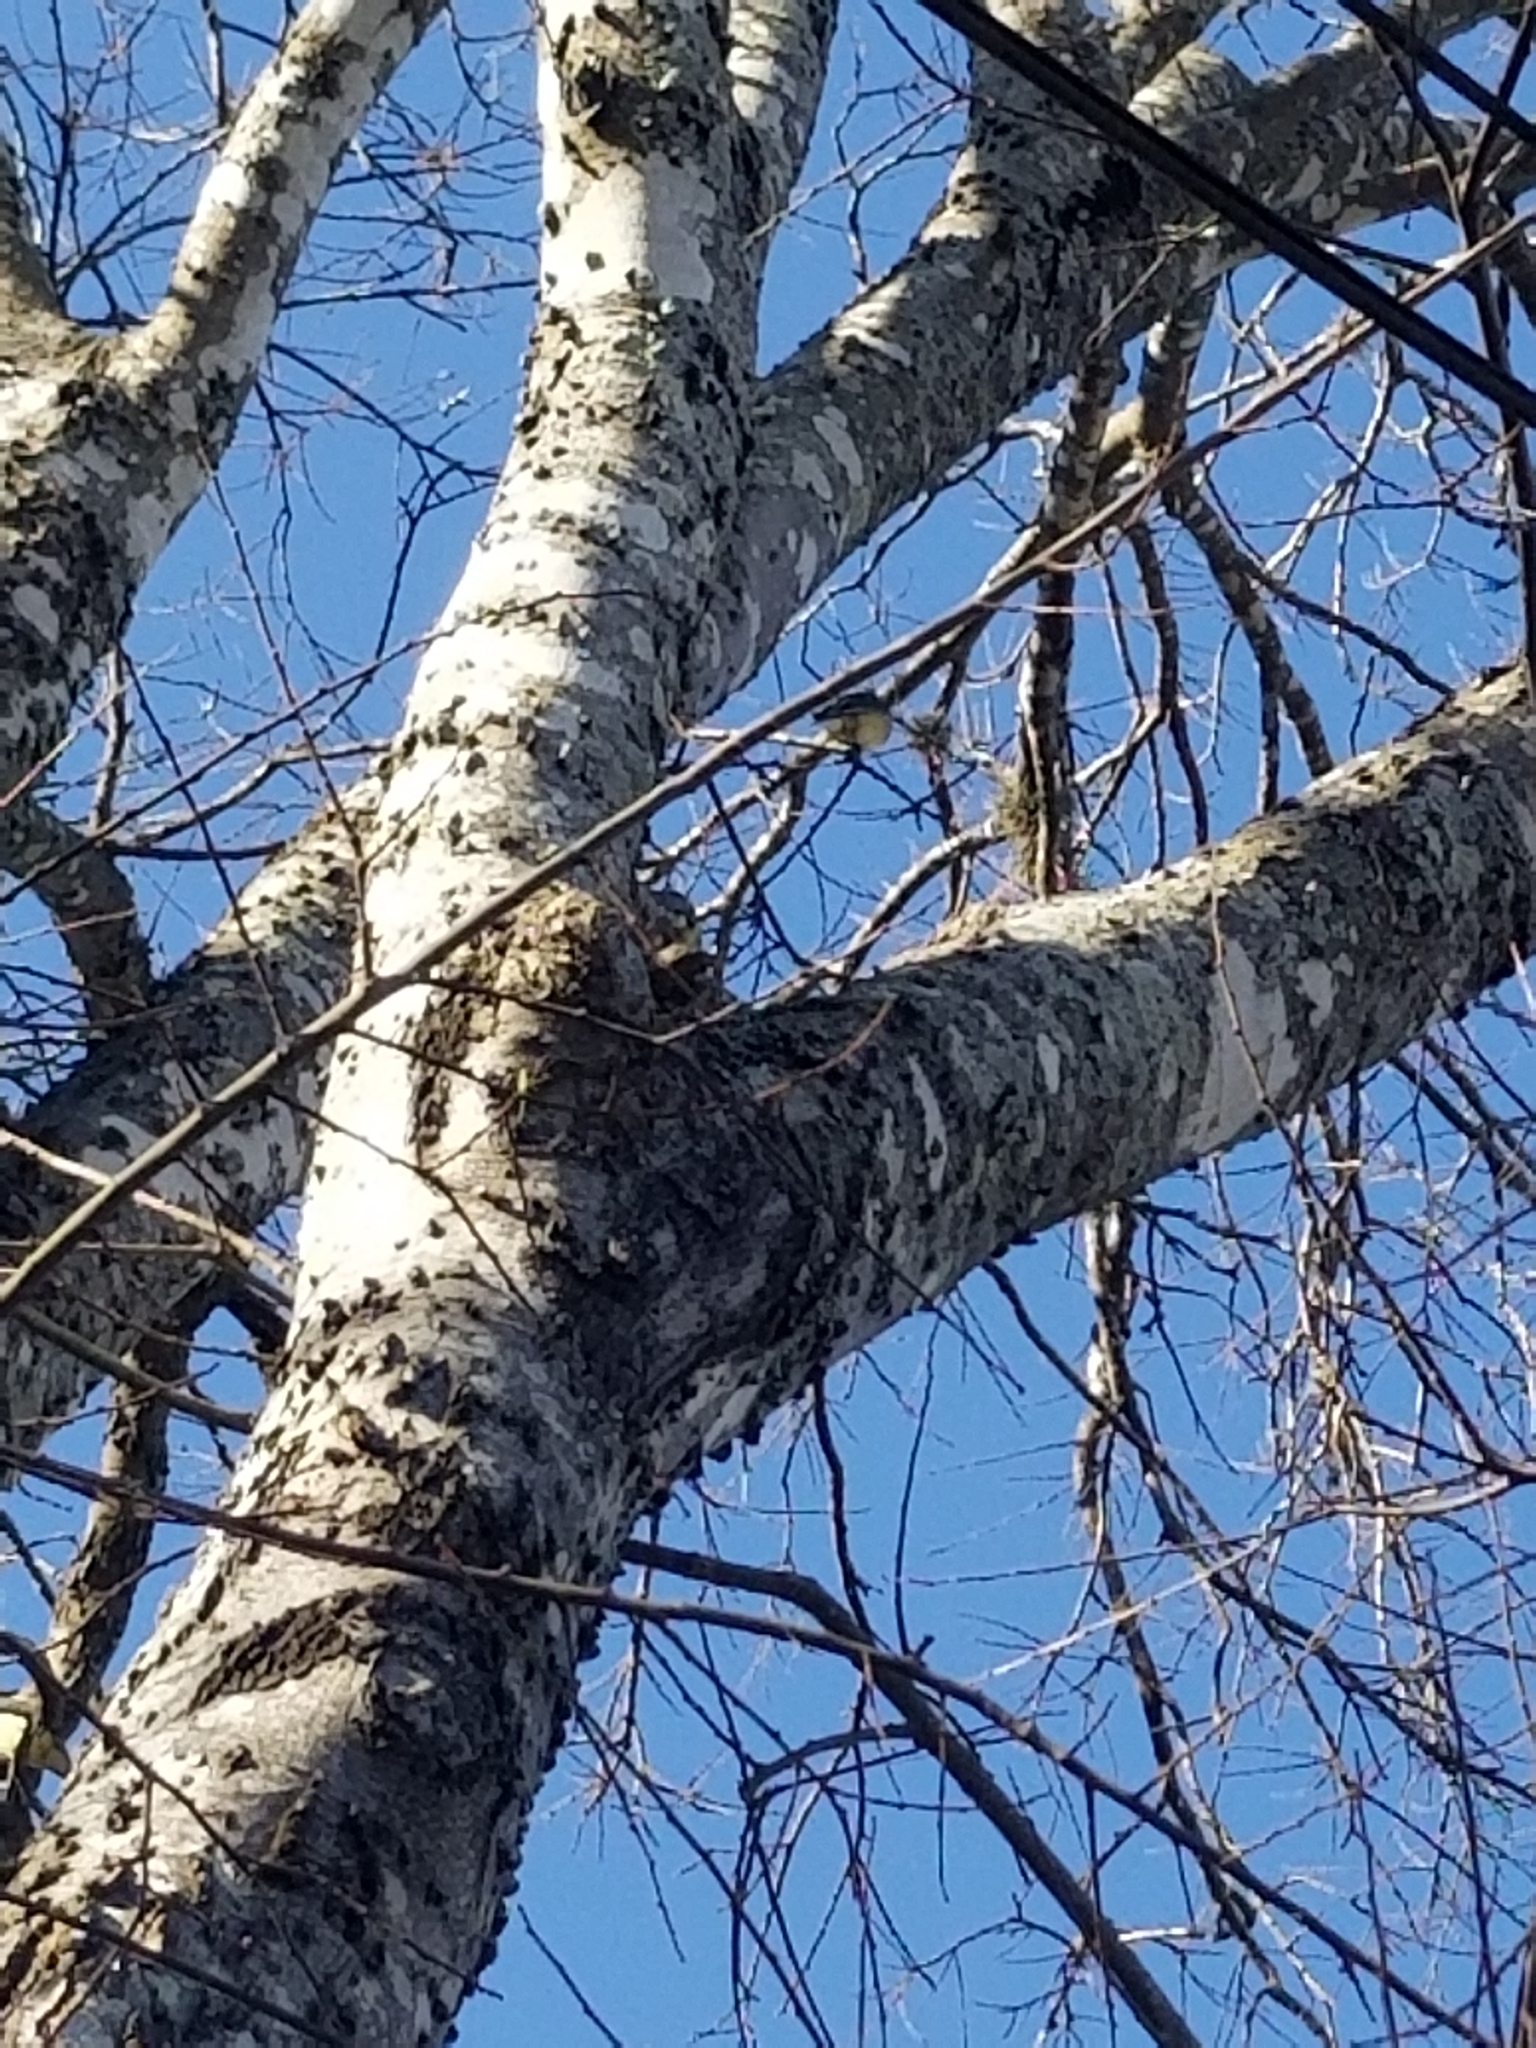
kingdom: Animalia
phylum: Chordata
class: Aves
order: Passeriformes
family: Bombycillidae
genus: Bombycilla
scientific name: Bombycilla cedrorum
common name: Cedar waxwing
